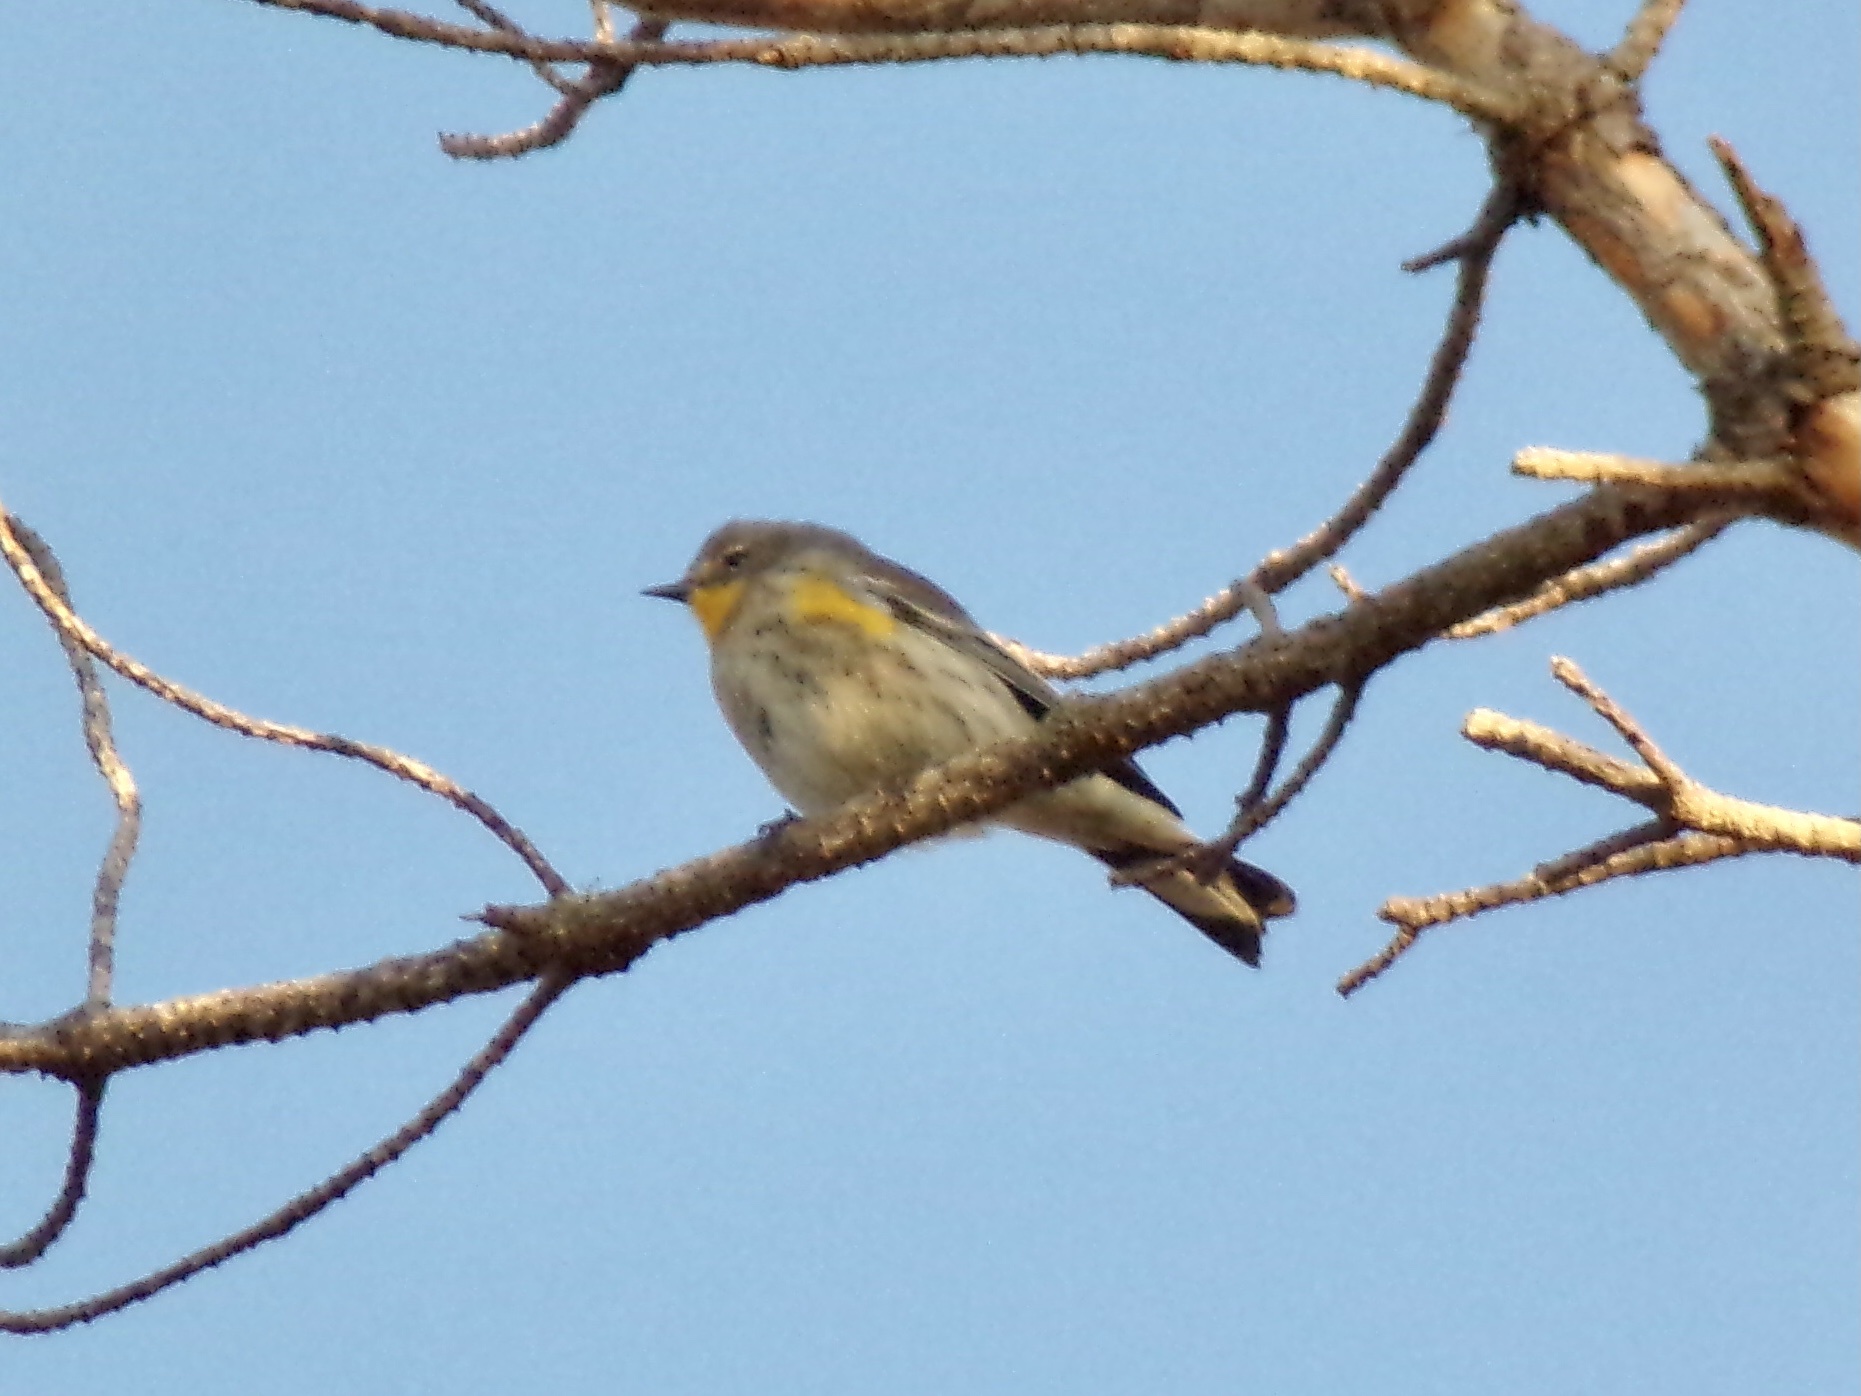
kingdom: Animalia
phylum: Chordata
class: Aves
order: Passeriformes
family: Parulidae
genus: Setophaga
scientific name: Setophaga coronata
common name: Myrtle warbler
